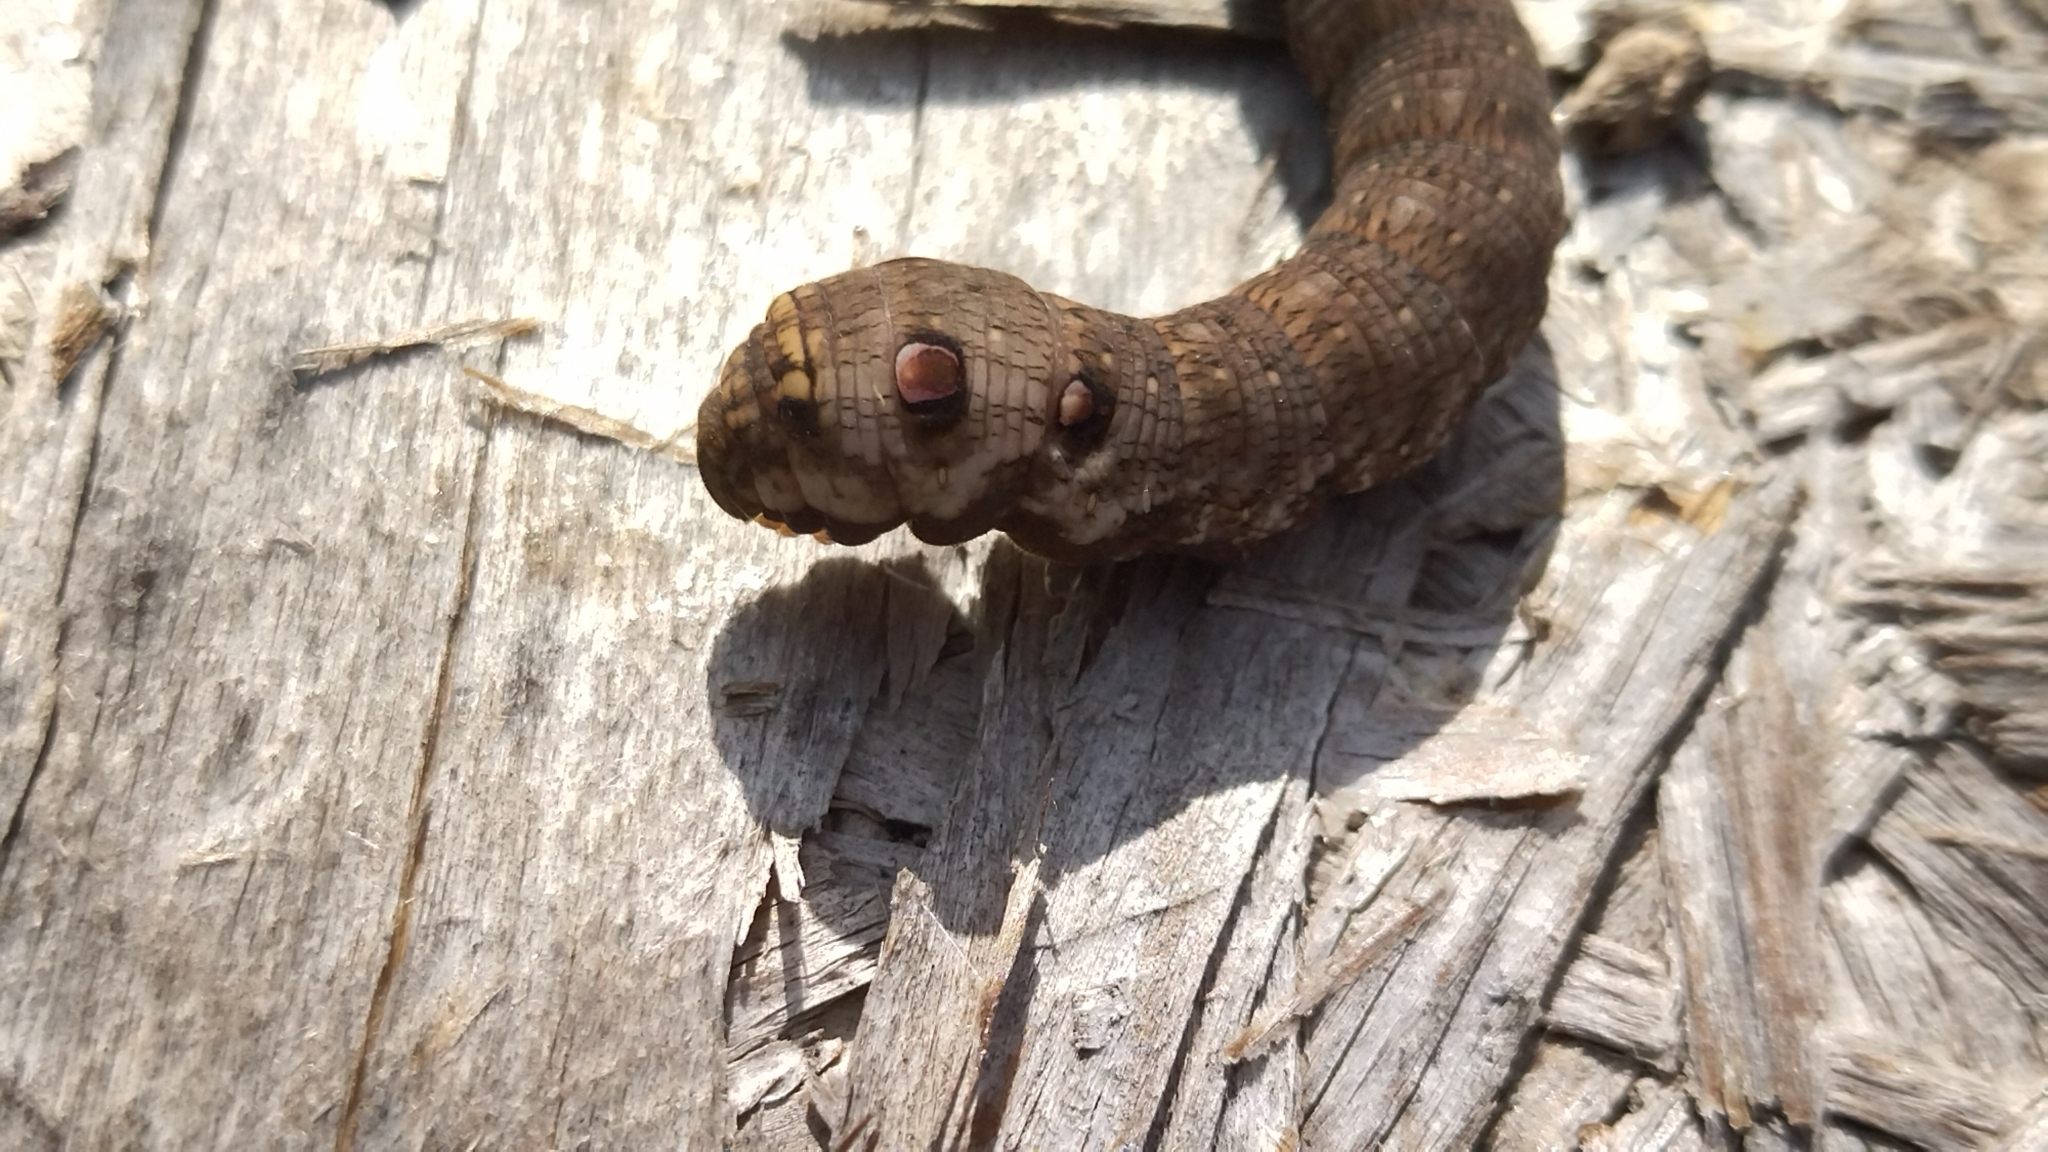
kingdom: Animalia
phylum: Arthropoda
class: Insecta
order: Lepidoptera
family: Sphingidae
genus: Deilephila
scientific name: Deilephila porcellus
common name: Small elephant hawk-moth
